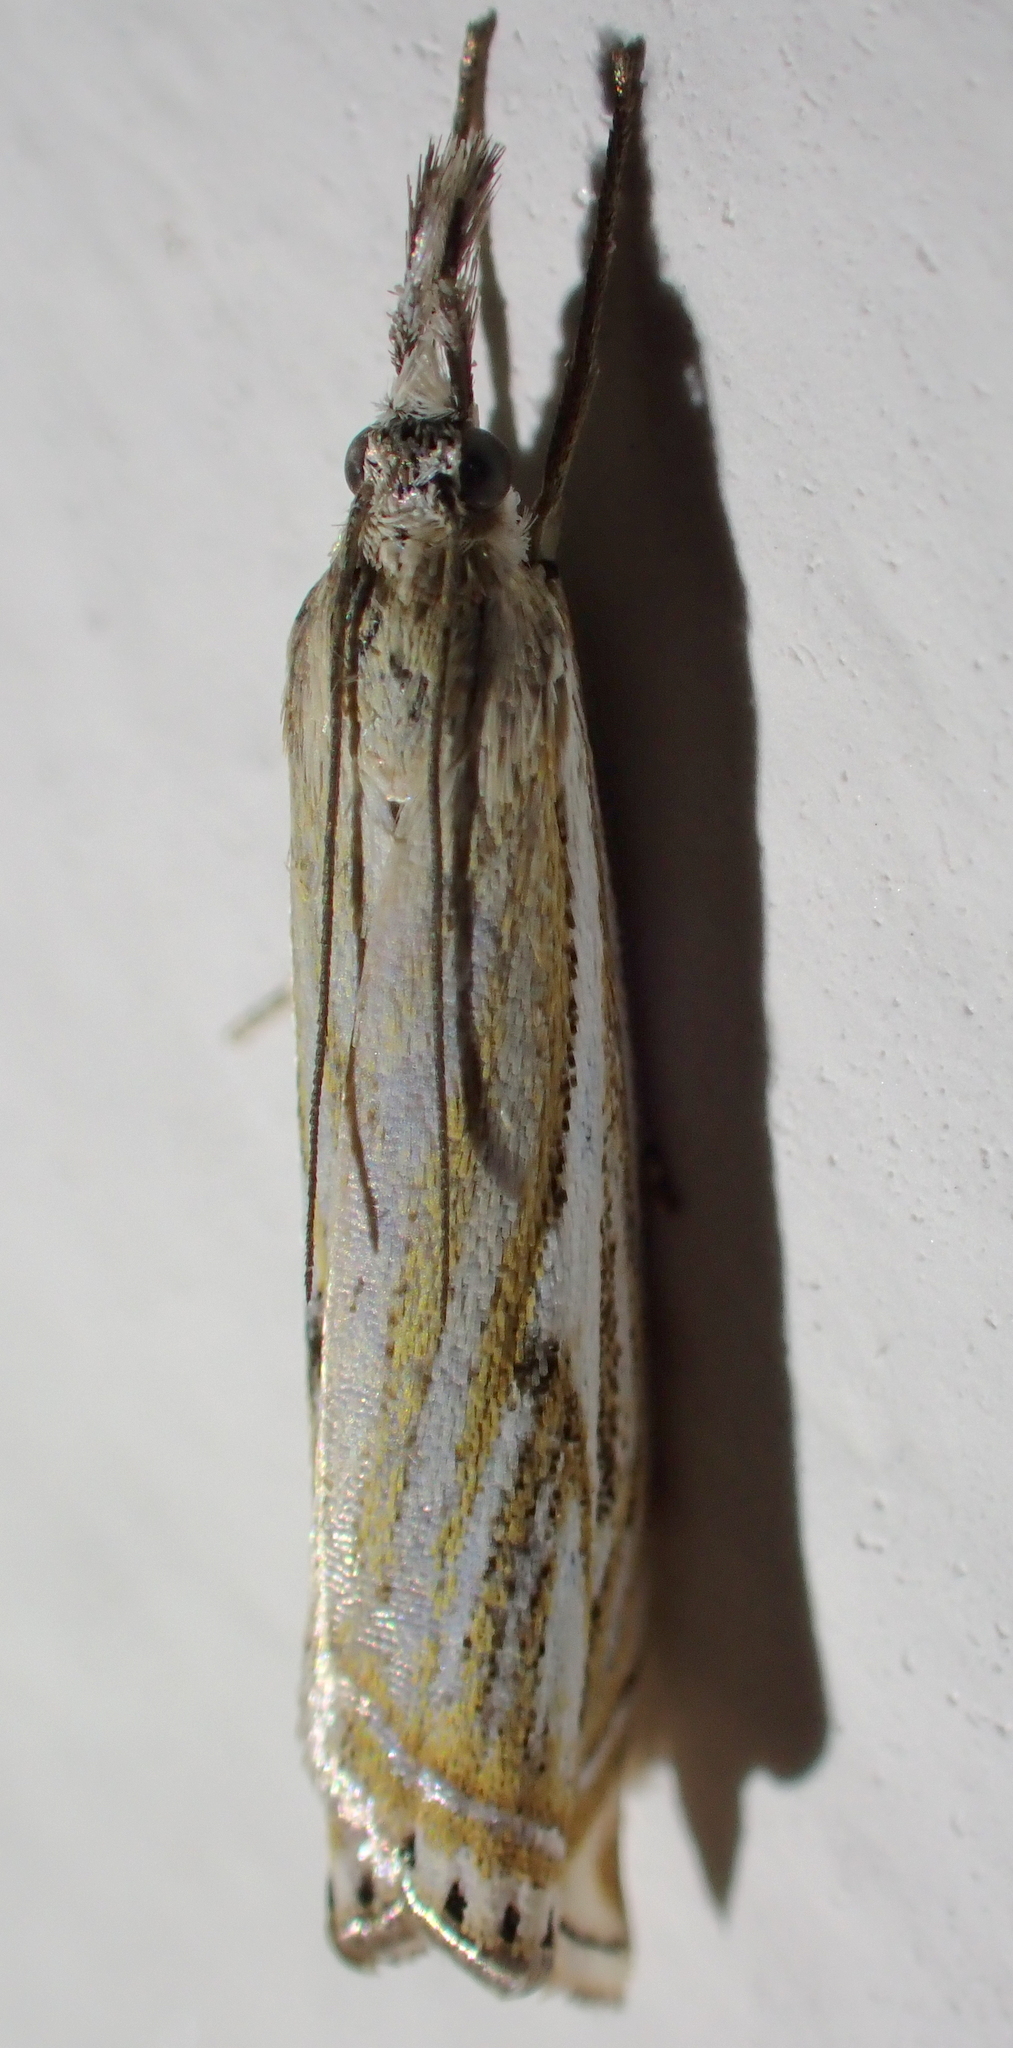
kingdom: Animalia
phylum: Arthropoda
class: Insecta
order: Lepidoptera
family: Crambidae
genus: Crambus
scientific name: Crambus nemorella
